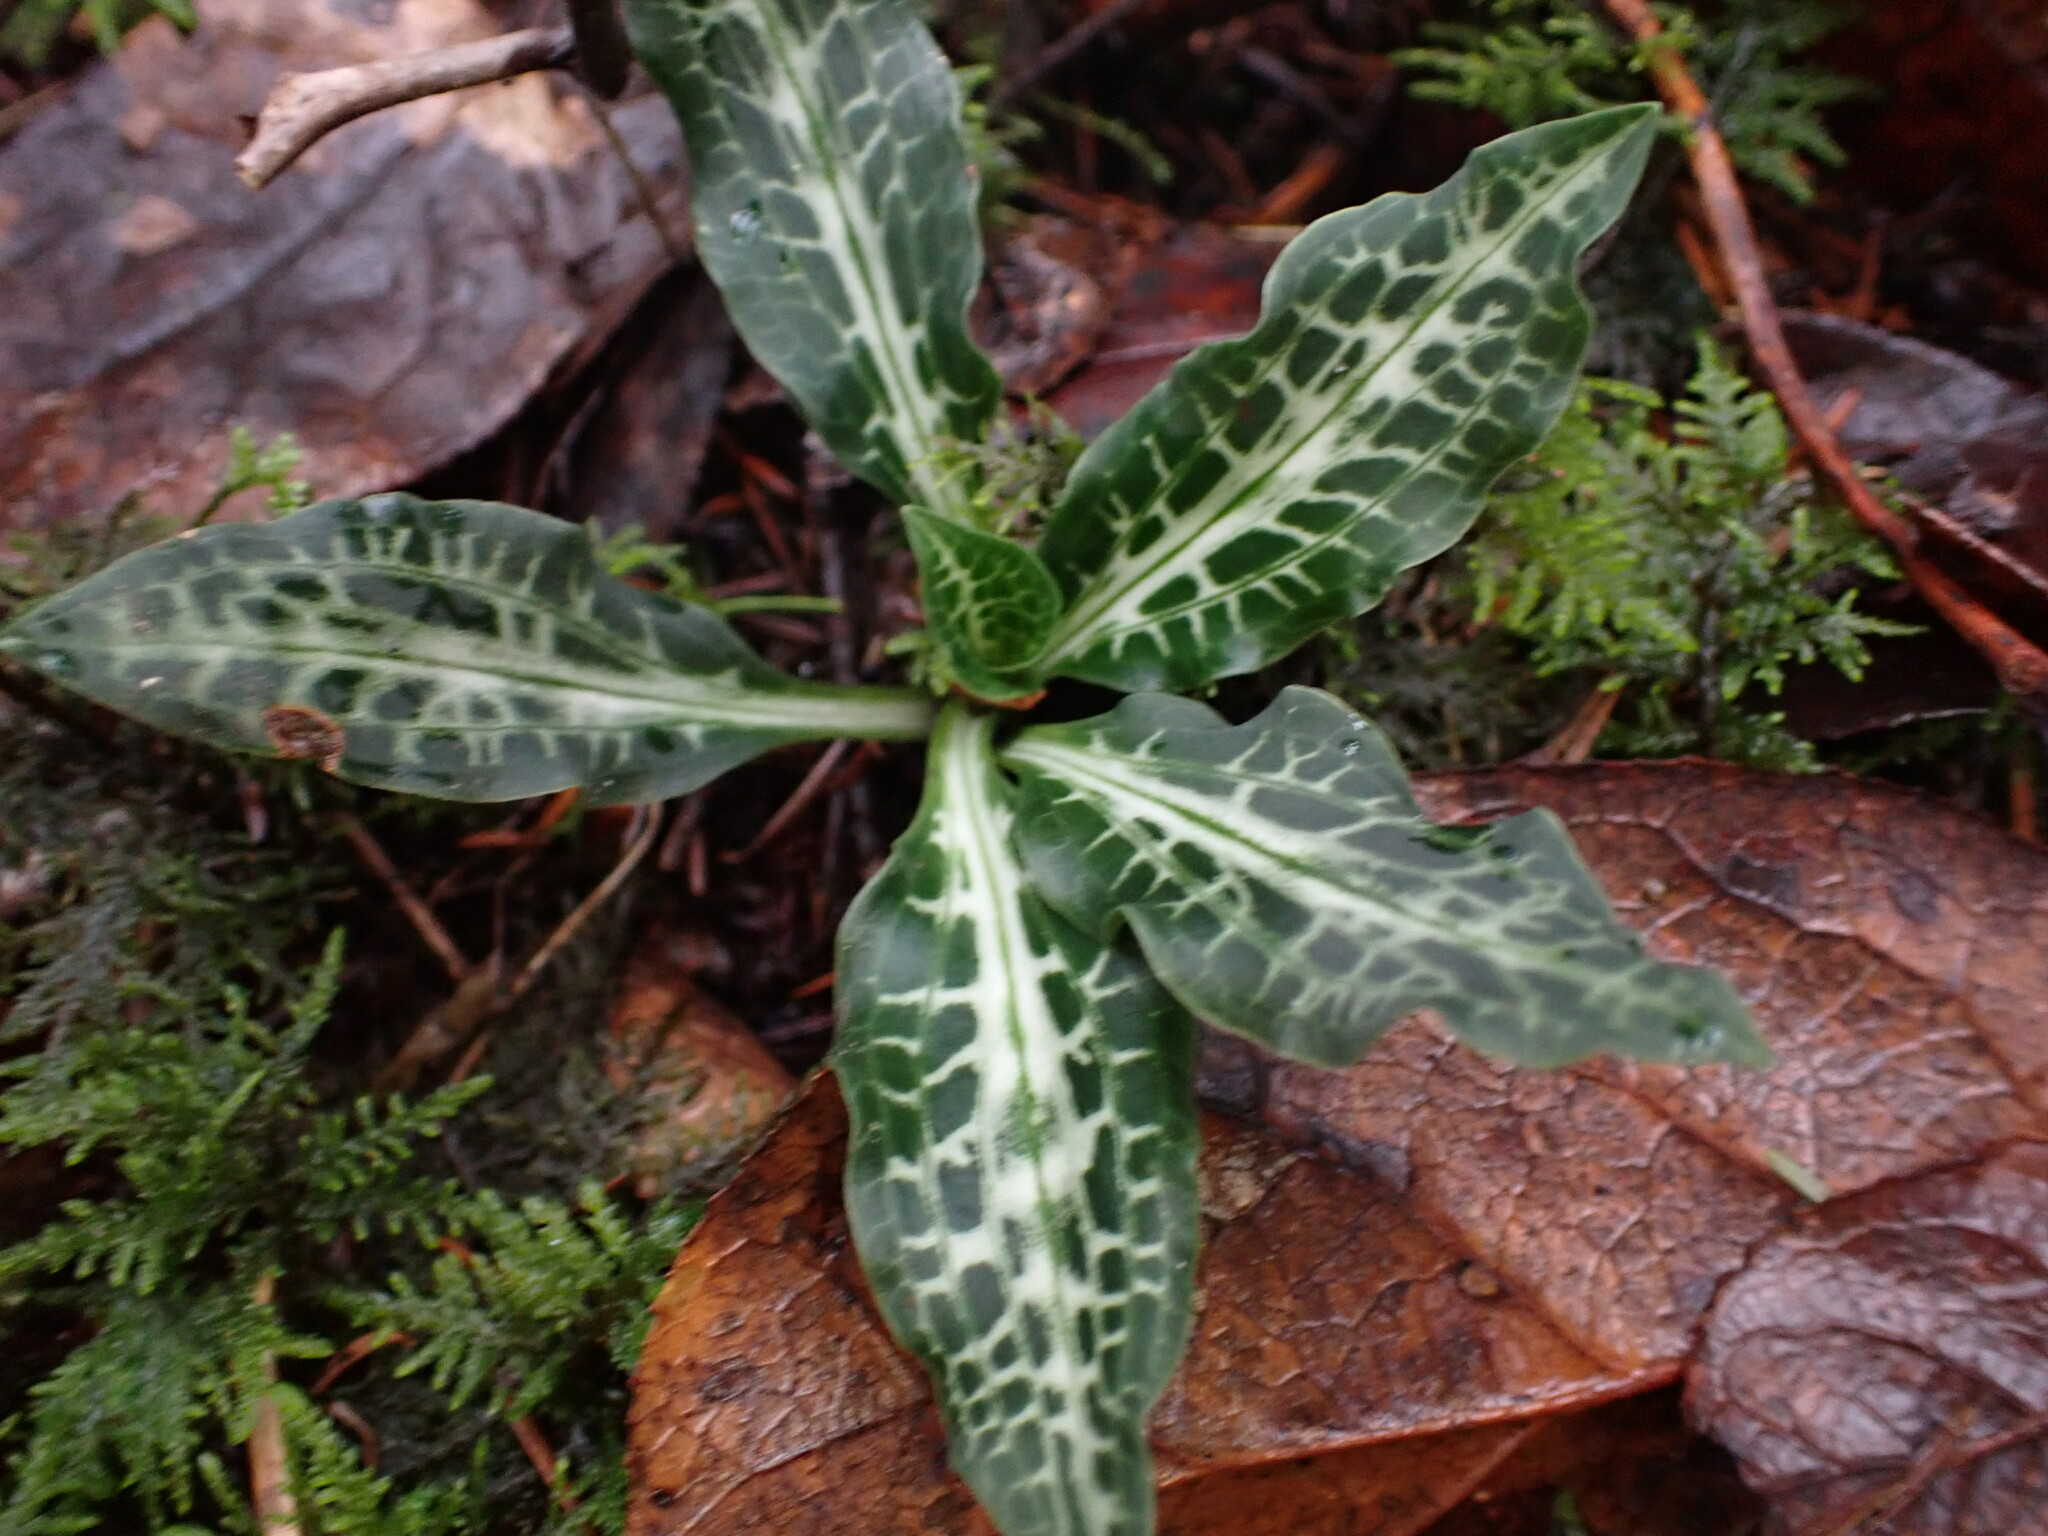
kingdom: Plantae
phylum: Tracheophyta
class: Liliopsida
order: Asparagales
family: Orchidaceae
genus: Goodyera
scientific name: Goodyera oblongifolia
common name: Giant rattlesnake-plantain
